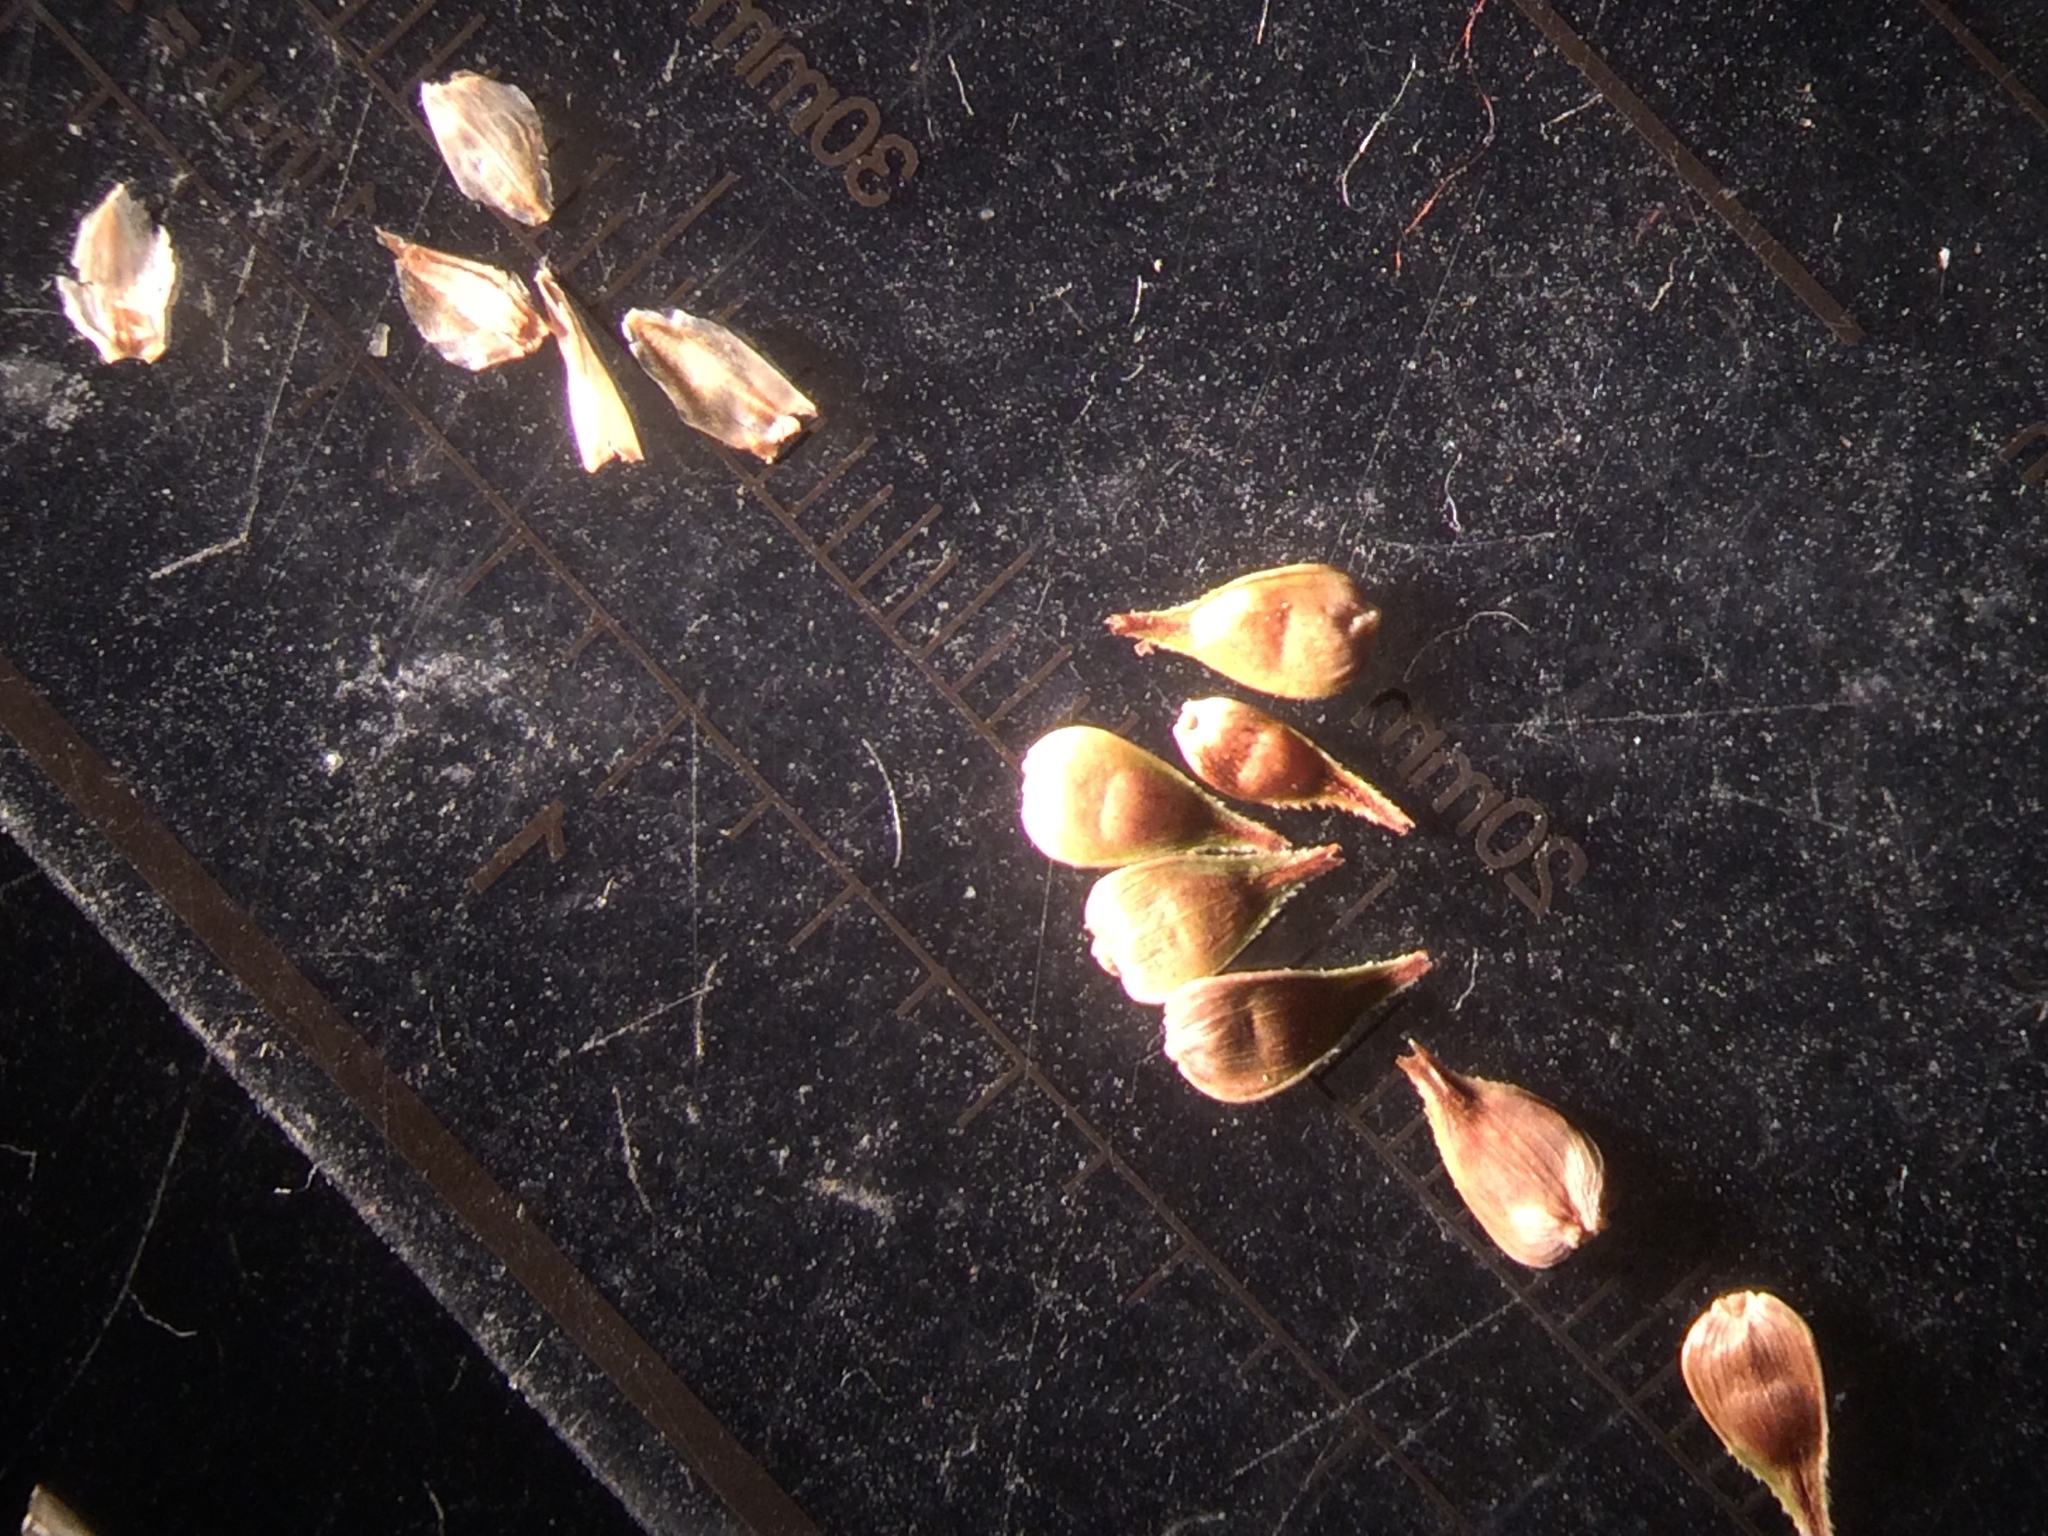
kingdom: Plantae
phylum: Tracheophyta
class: Liliopsida
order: Poales
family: Cyperaceae
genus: Carex
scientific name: Carex wiegandii
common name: Wiegand's sedge
